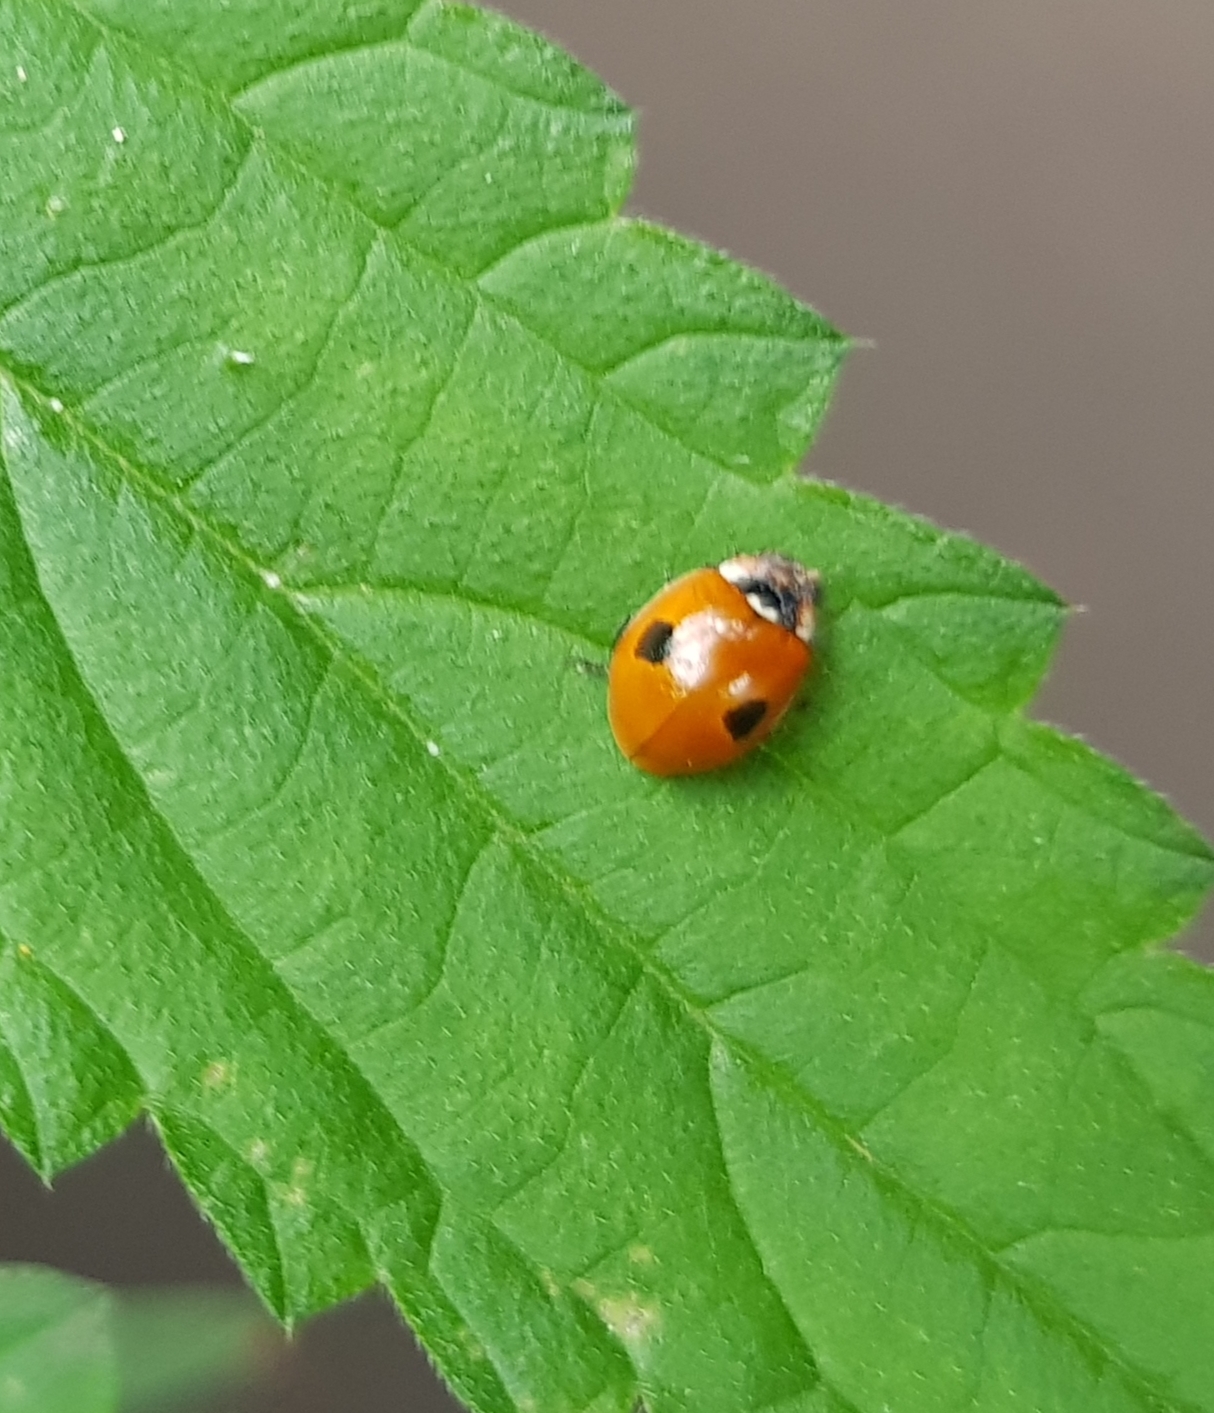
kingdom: Animalia
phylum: Arthropoda
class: Insecta
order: Coleoptera
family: Coccinellidae
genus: Adalia
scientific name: Adalia bipunctata
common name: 2-spot ladybird
